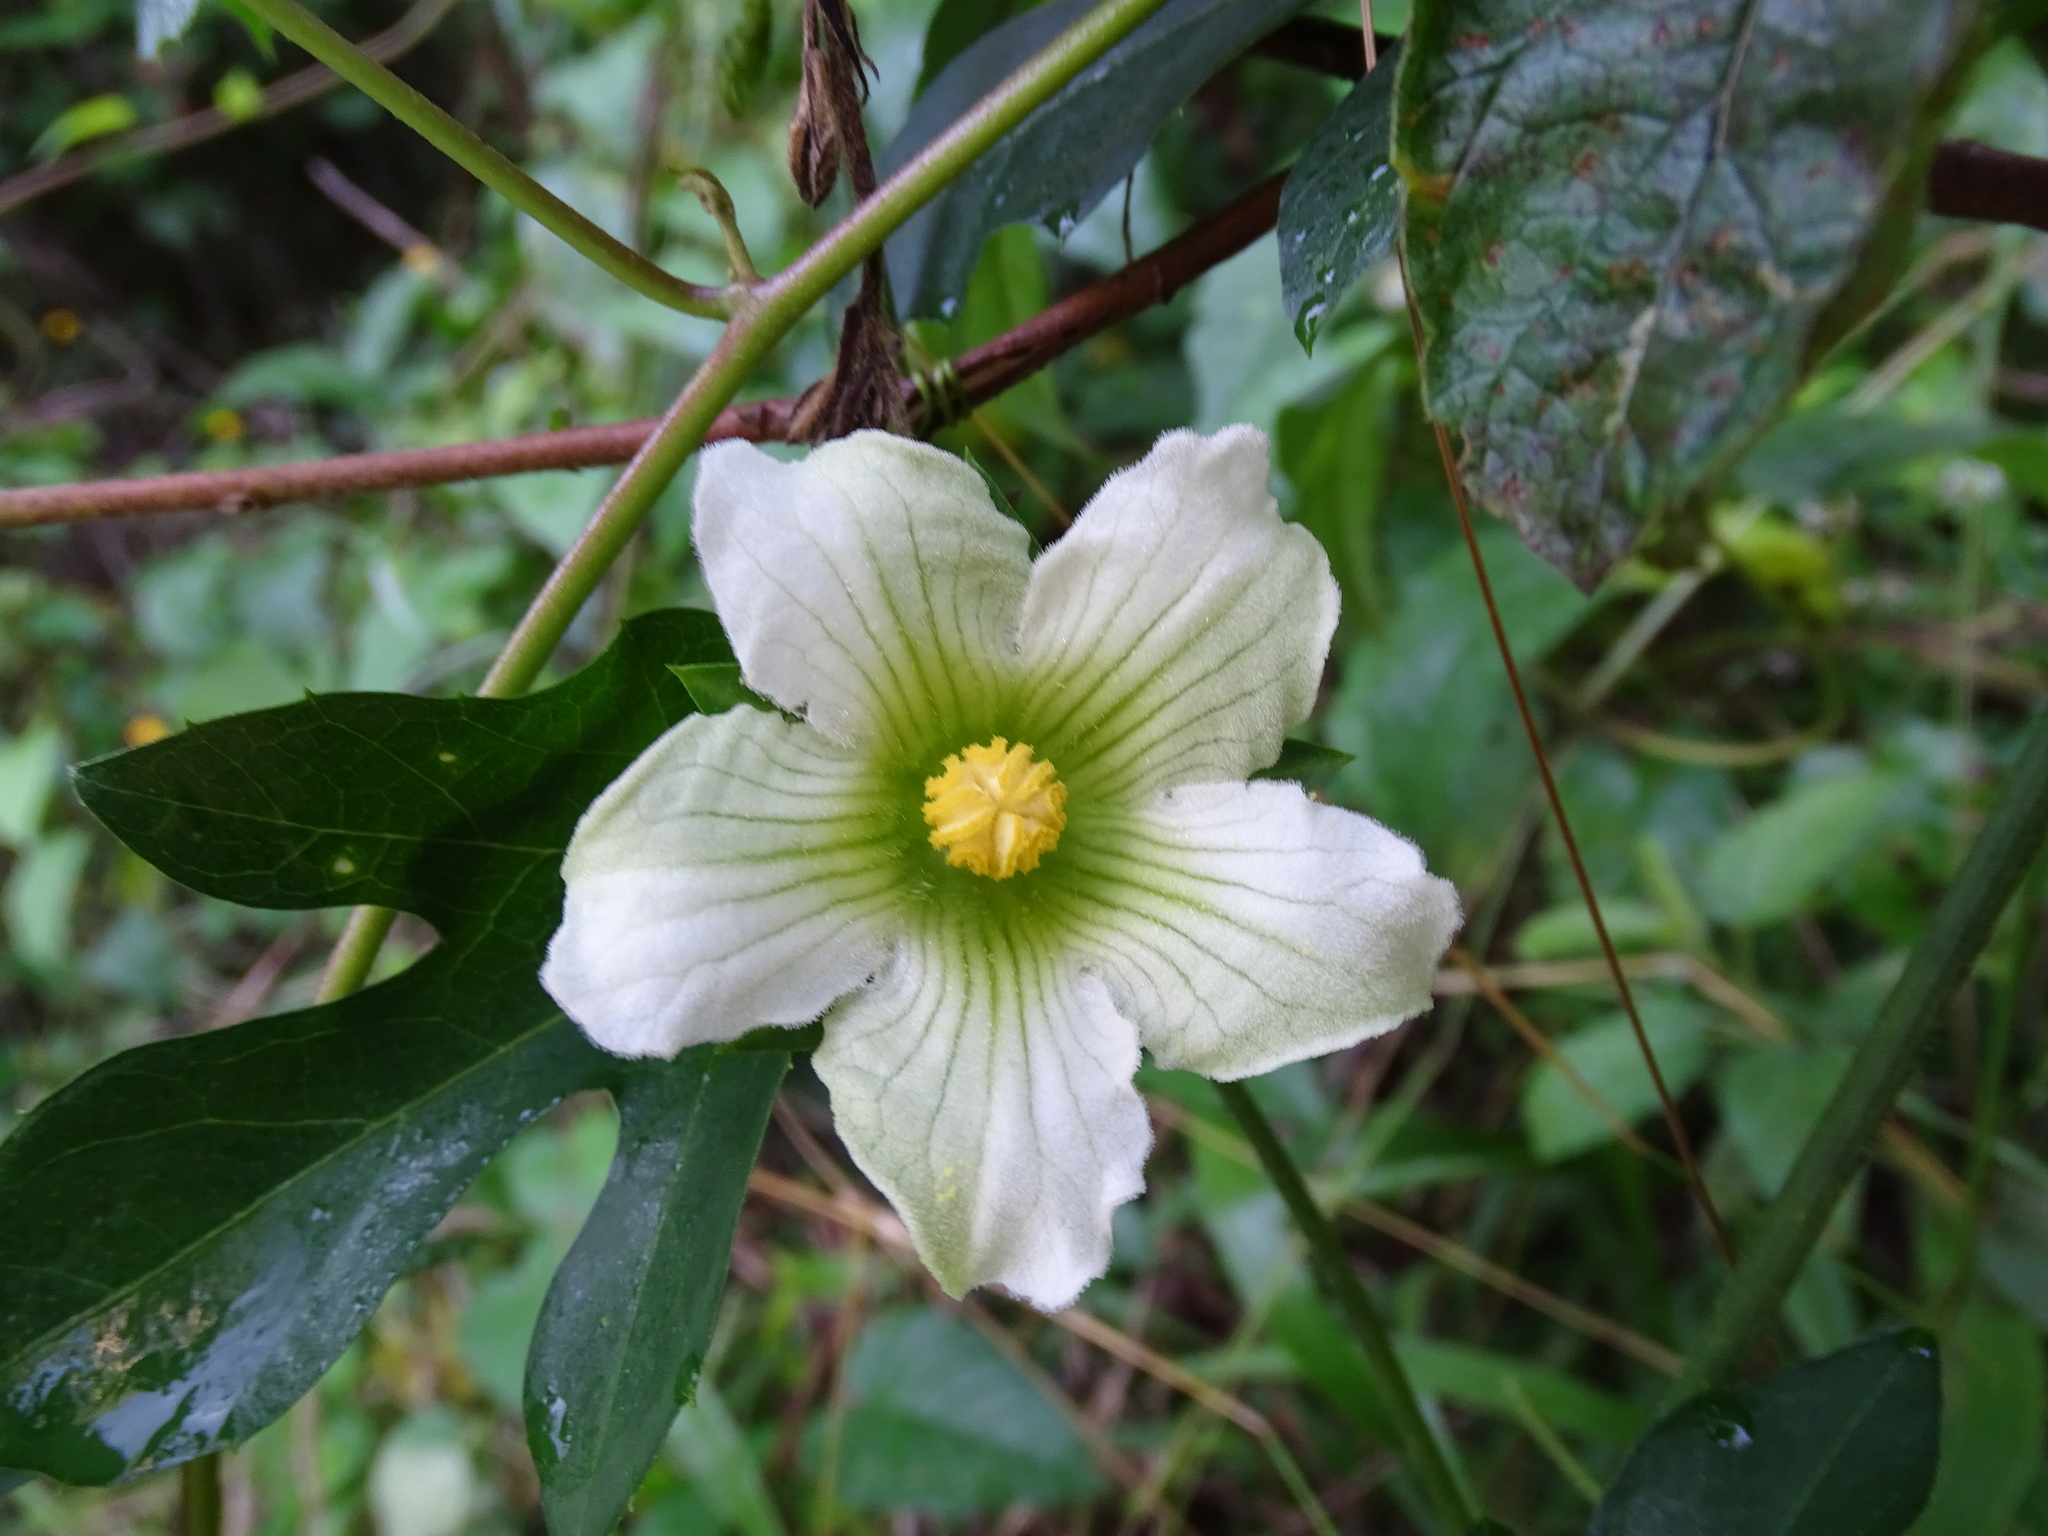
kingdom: Plantae
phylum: Tracheophyta
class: Magnoliopsida
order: Cucurbitales
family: Cucurbitaceae
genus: Cionosicys
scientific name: Cionosicys excisus
